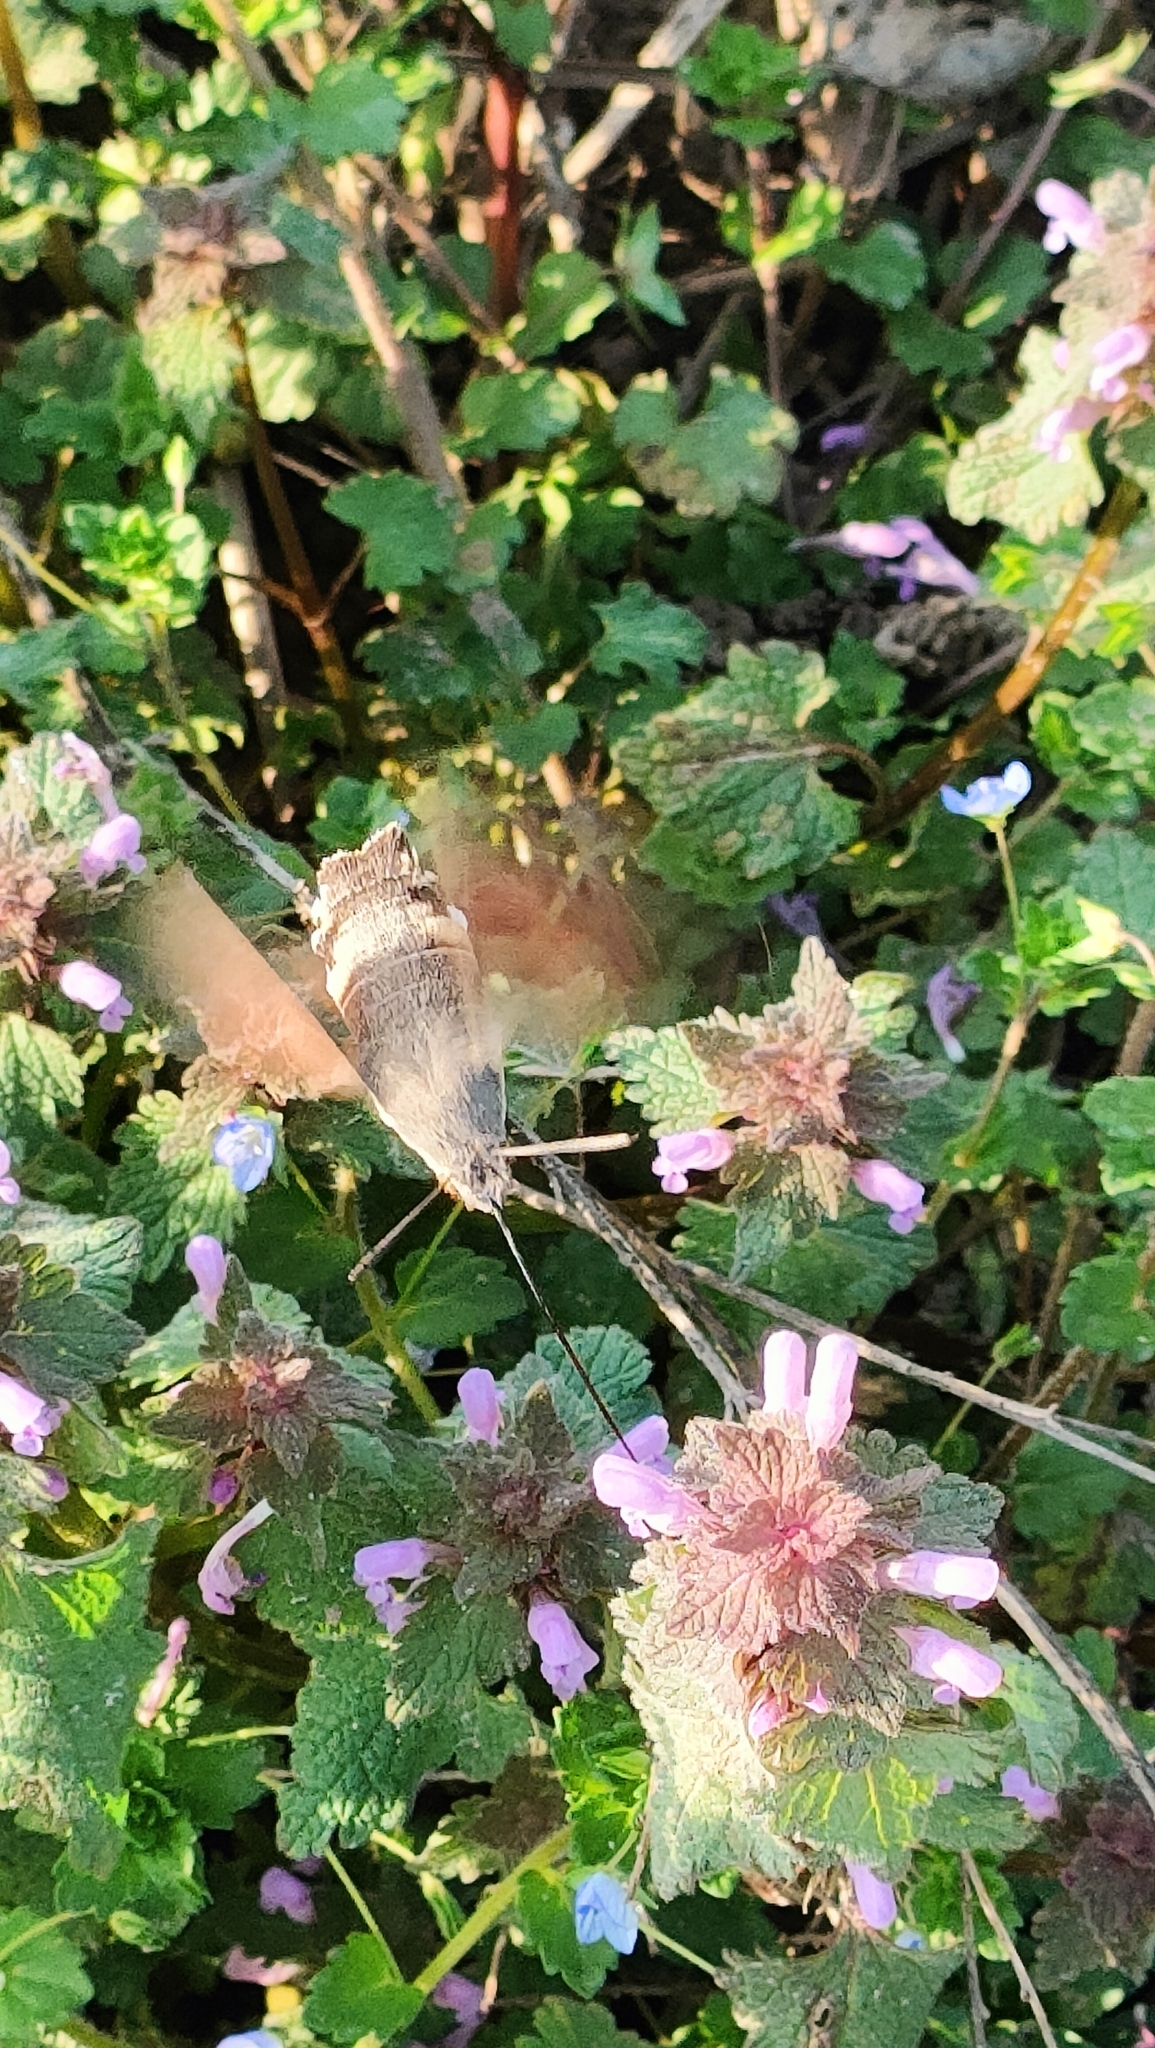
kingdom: Animalia
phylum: Arthropoda
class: Insecta
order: Lepidoptera
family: Sphingidae
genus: Macroglossum
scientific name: Macroglossum stellatarum
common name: Humming-bird hawk-moth
